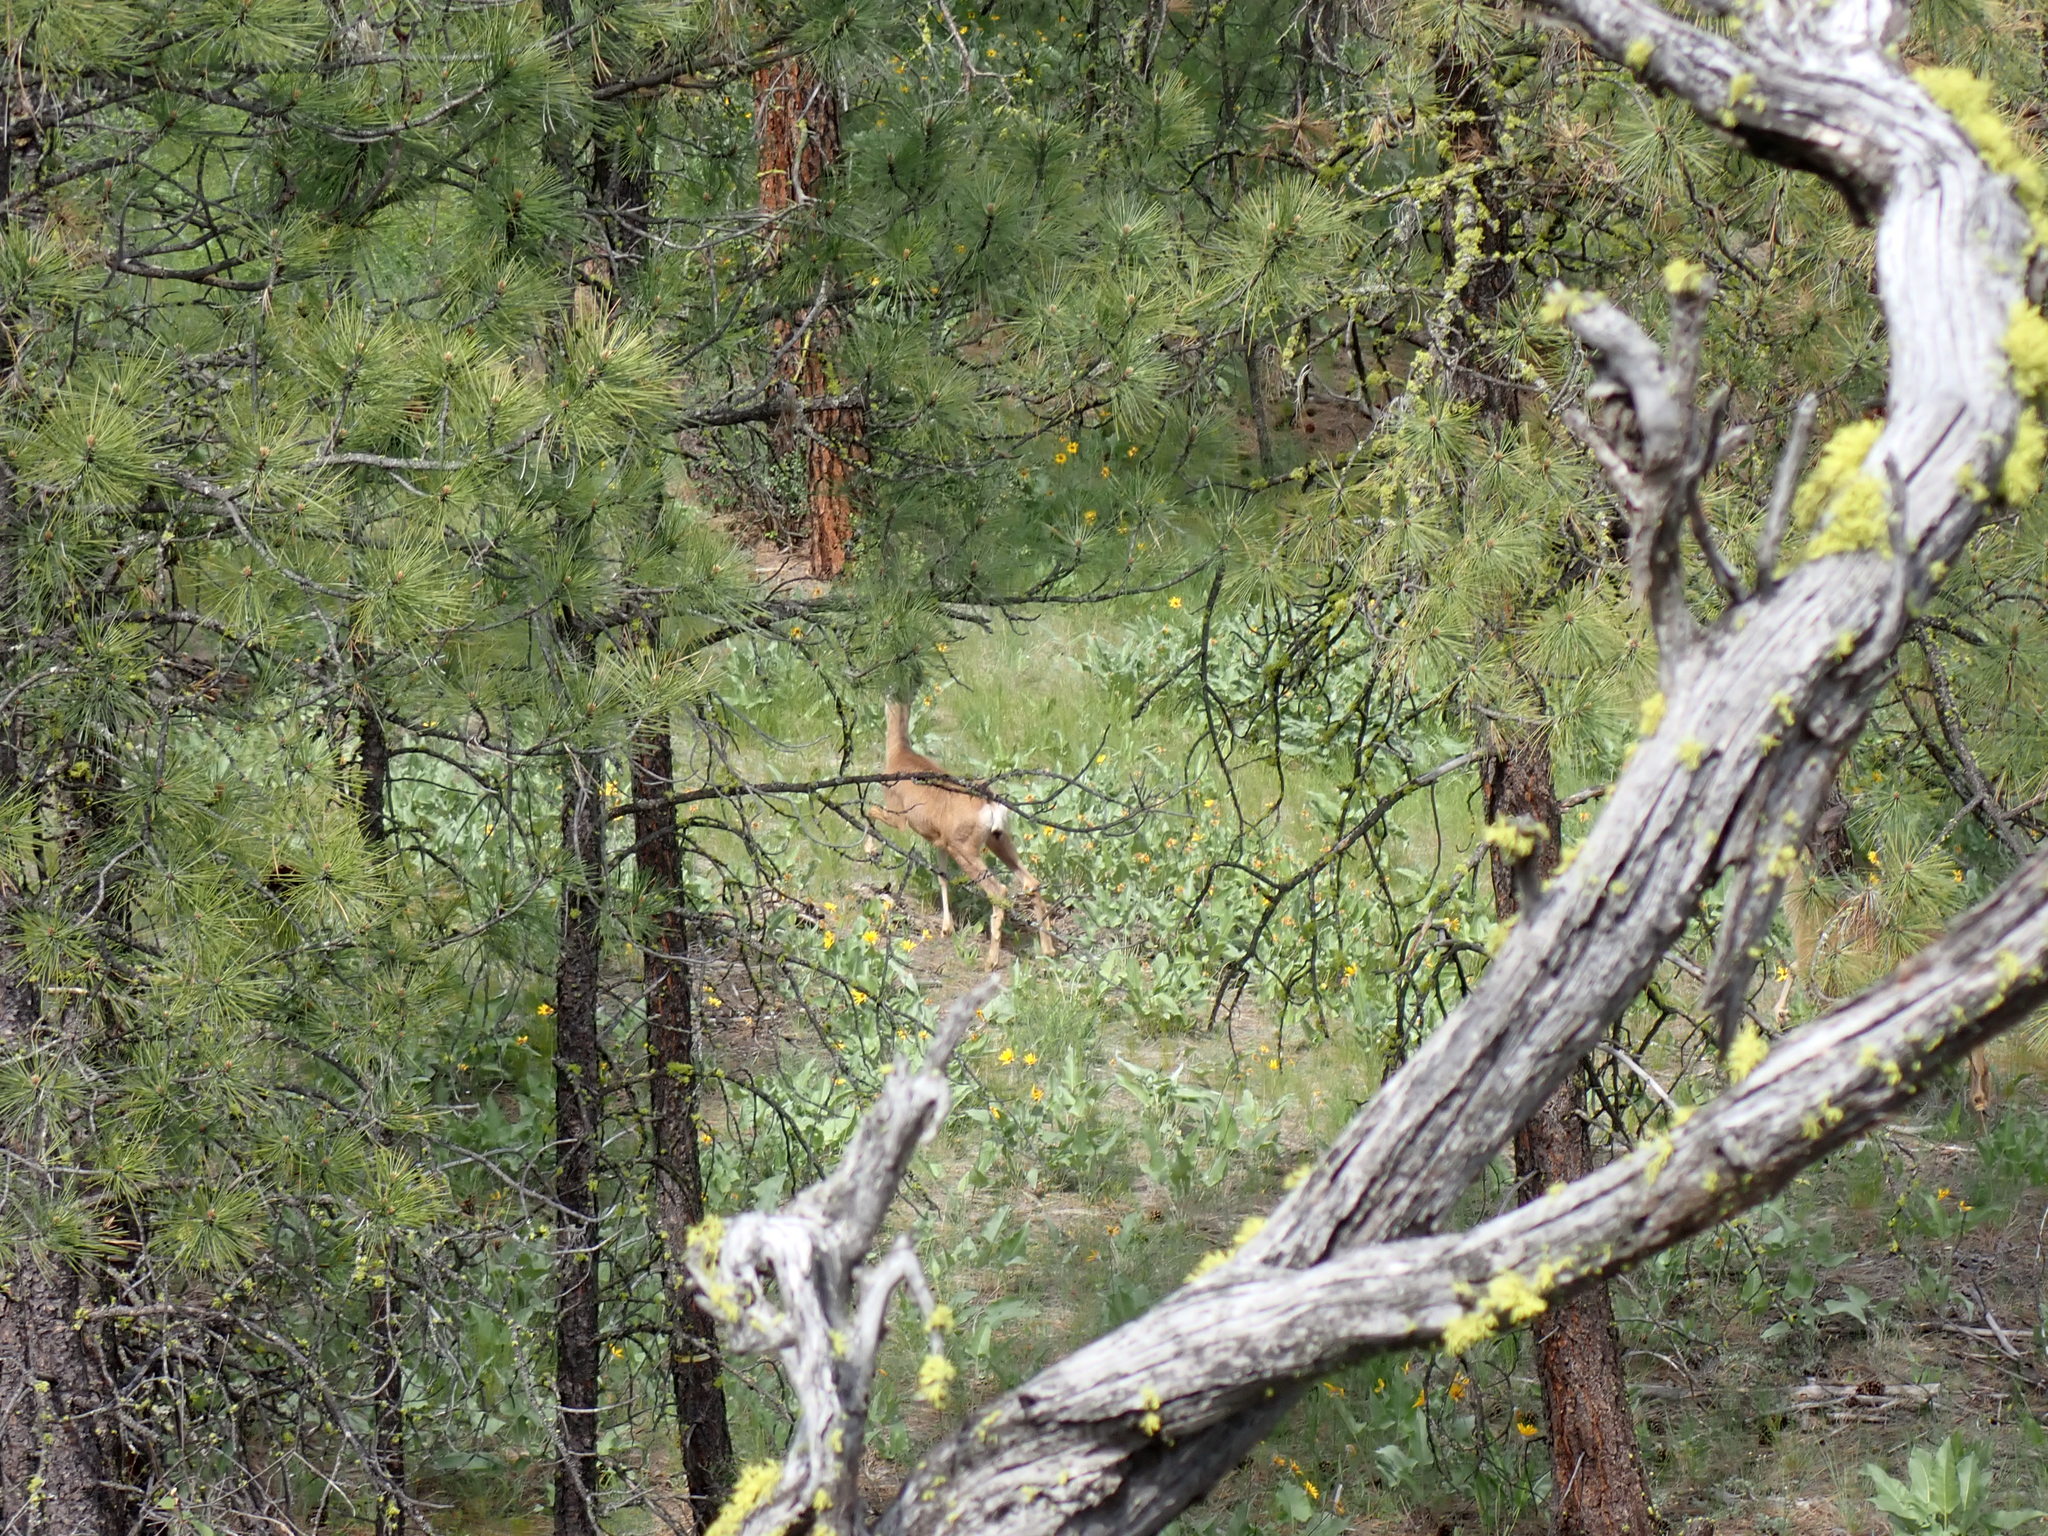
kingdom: Animalia
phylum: Chordata
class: Mammalia
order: Artiodactyla
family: Cervidae
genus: Odocoileus
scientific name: Odocoileus hemionus
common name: Mule deer
